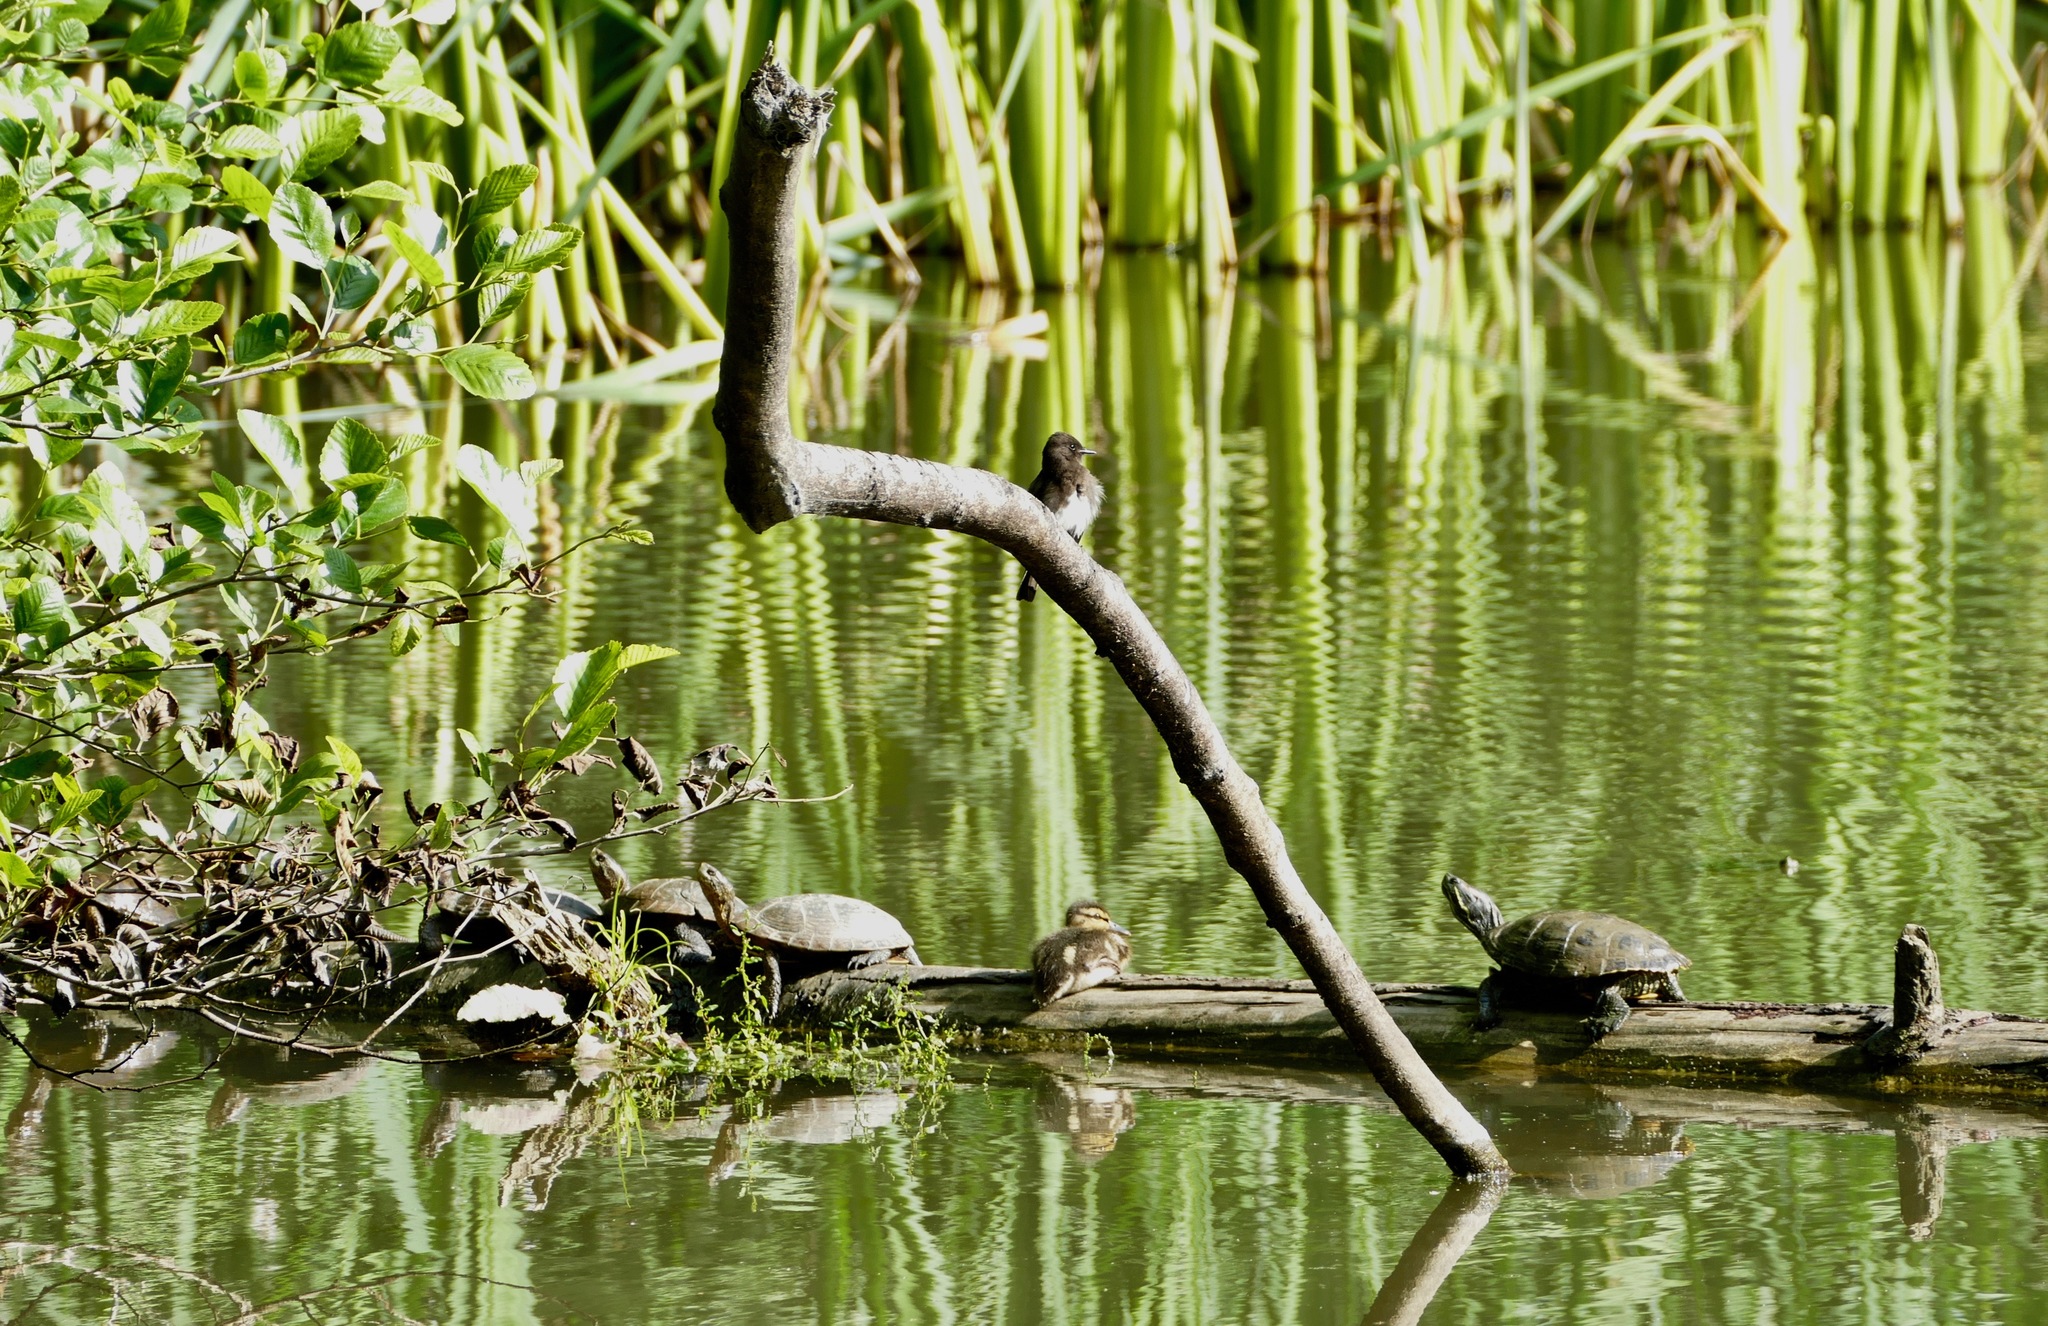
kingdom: Animalia
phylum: Chordata
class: Testudines
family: Emydidae
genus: Actinemys
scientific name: Actinemys marmorata
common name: Western pond turtle
